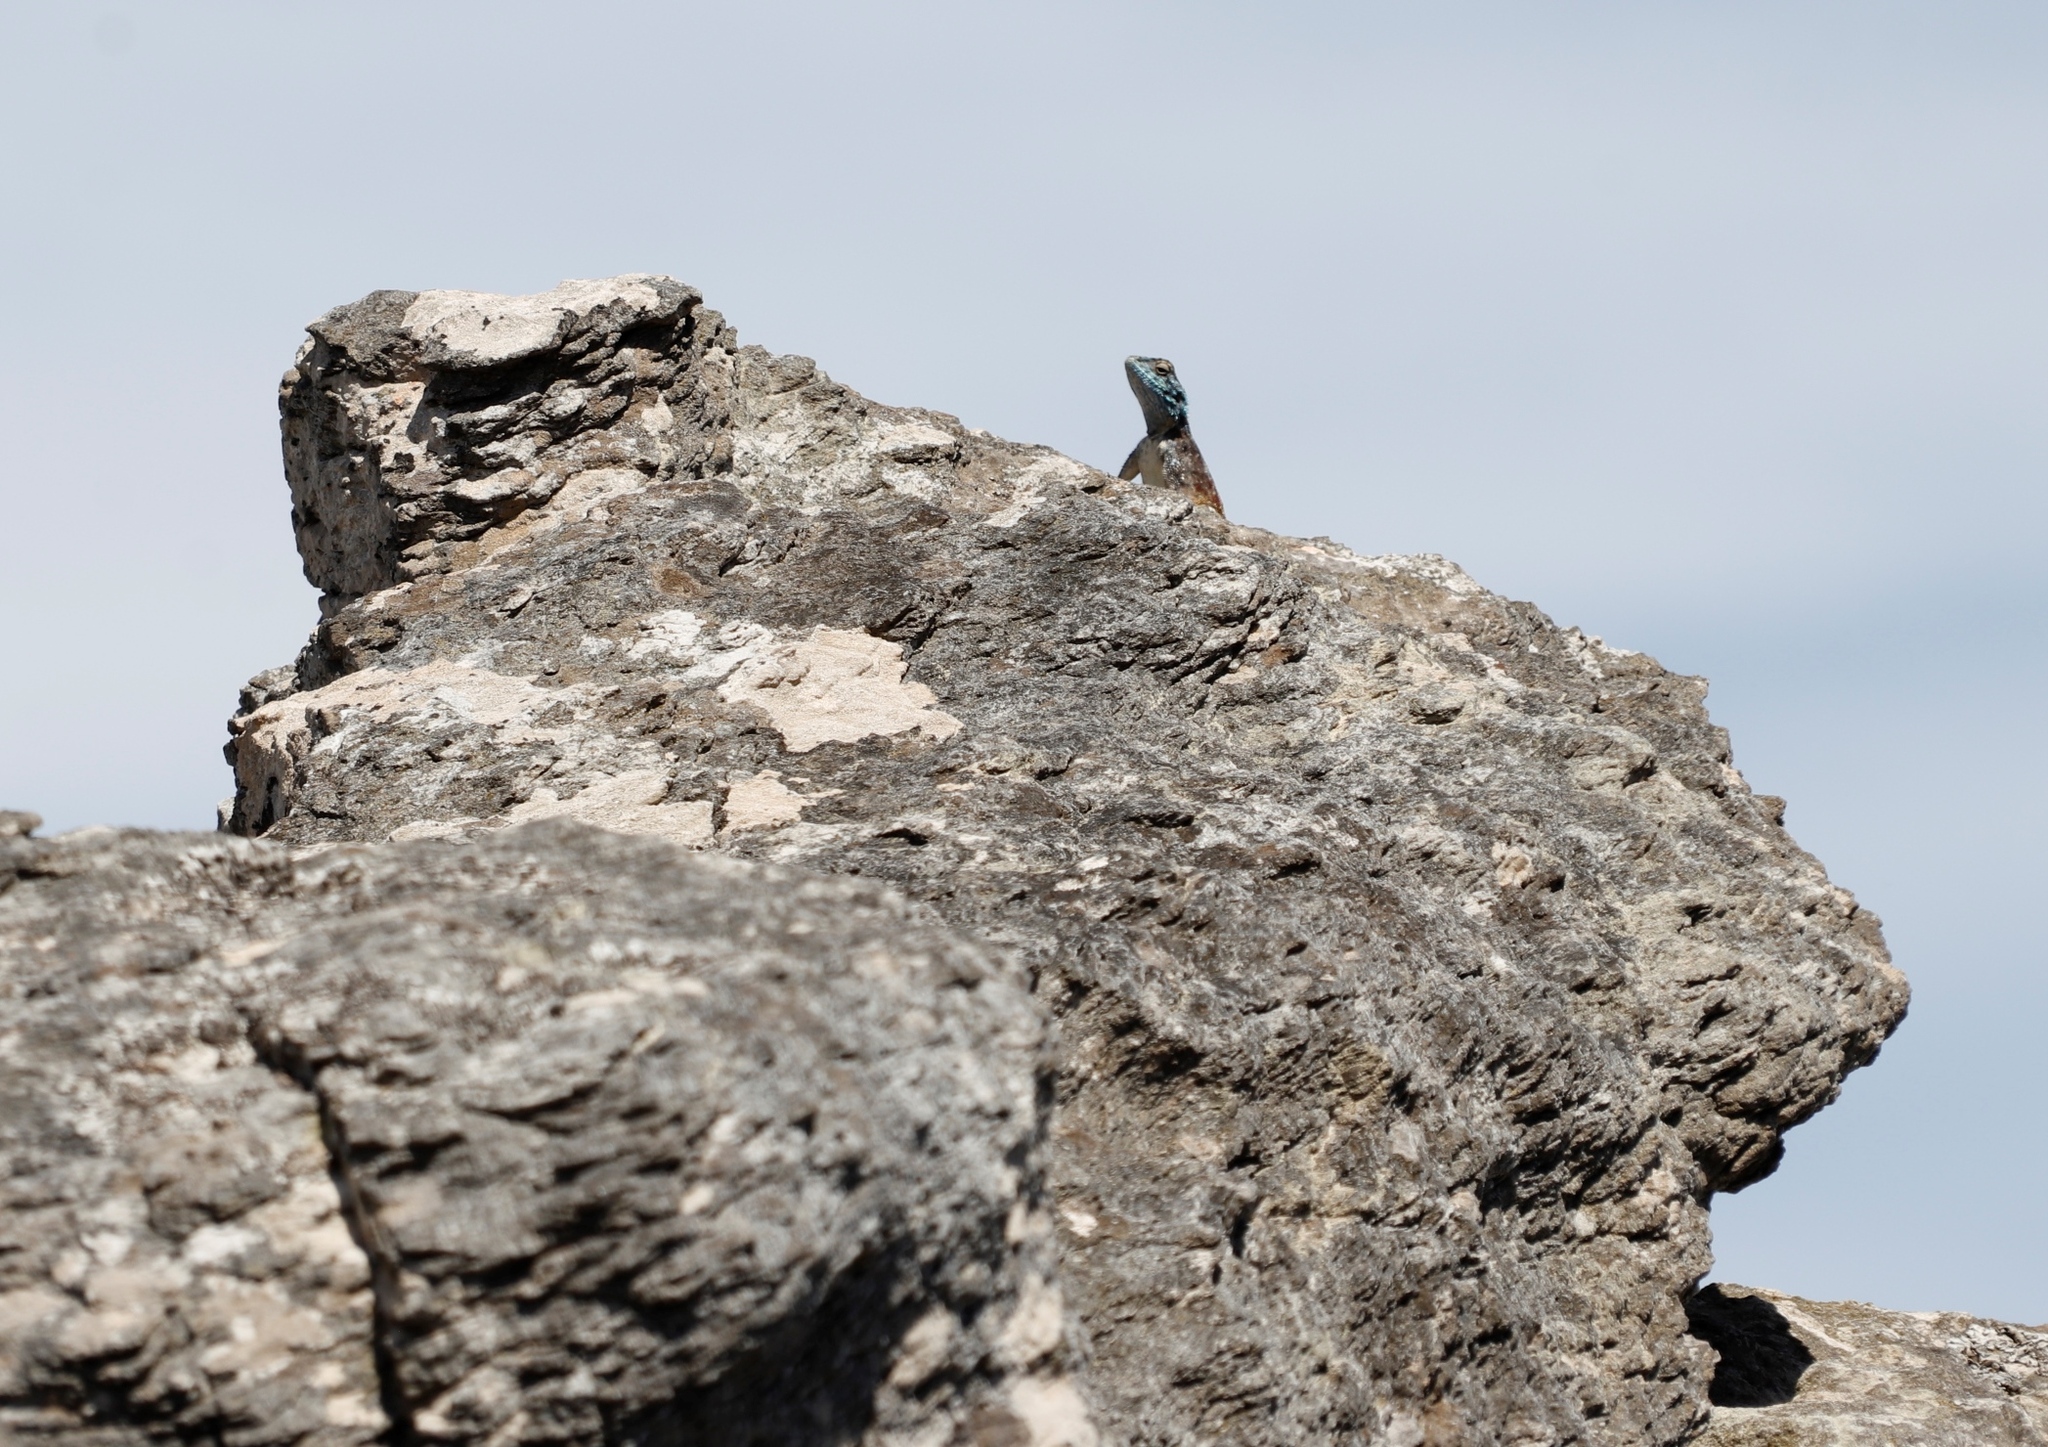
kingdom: Animalia
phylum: Chordata
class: Squamata
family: Agamidae
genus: Agama
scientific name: Agama atra
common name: Southern african rock agama
